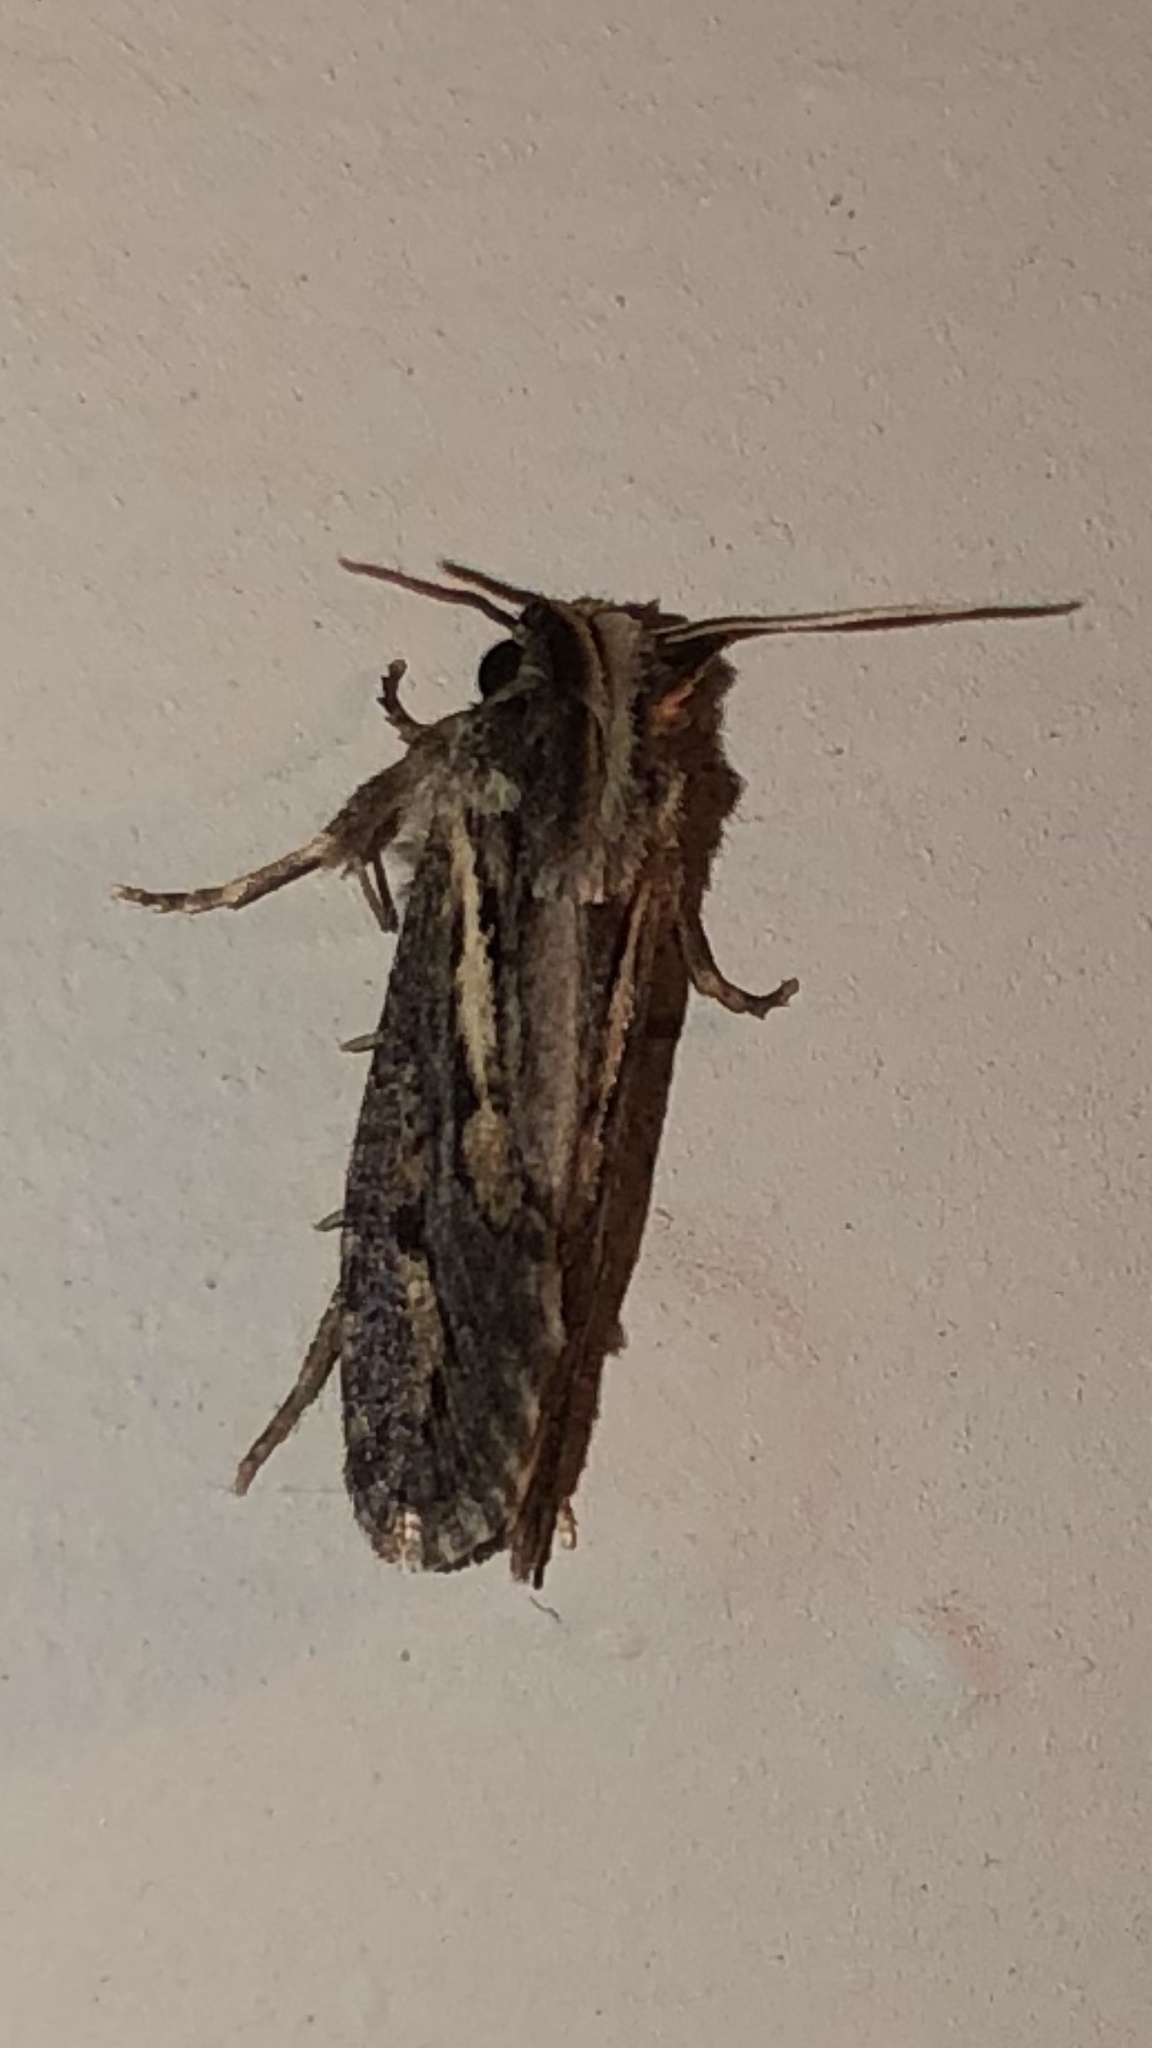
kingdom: Animalia
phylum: Arthropoda
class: Insecta
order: Lepidoptera
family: Tineidae
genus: Acrolophus
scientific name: Acrolophus popeanella
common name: Clemens' grass tubeworm moth
